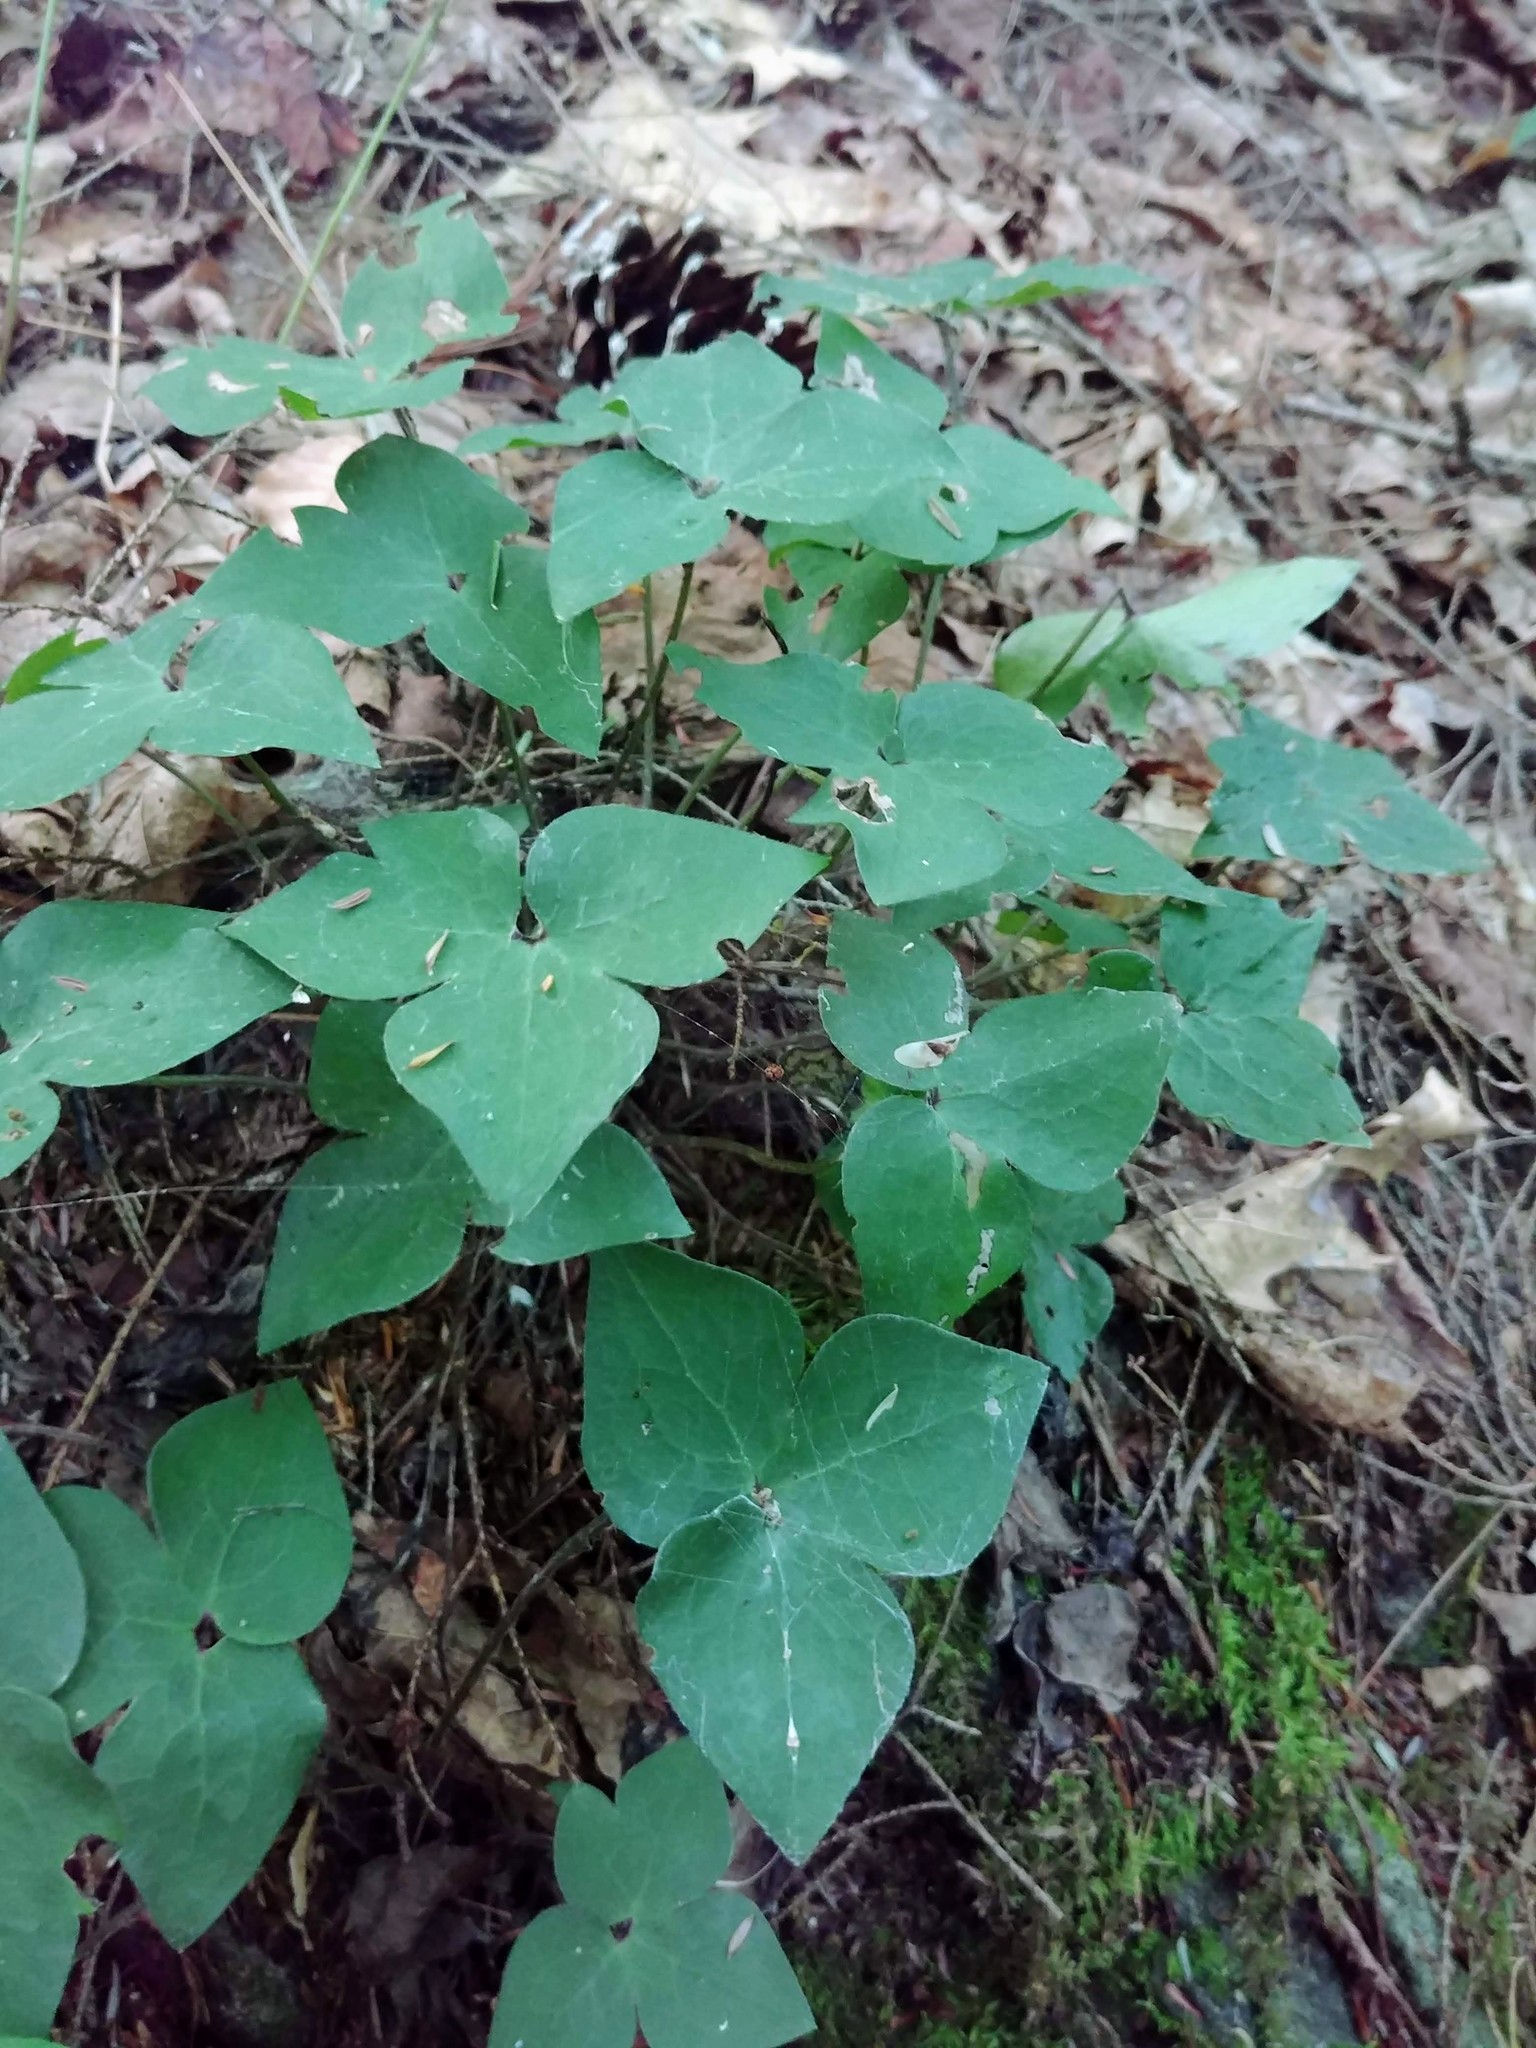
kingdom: Plantae
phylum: Tracheophyta
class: Magnoliopsida
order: Ranunculales
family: Ranunculaceae
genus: Hepatica
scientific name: Hepatica acutiloba
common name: Sharp-lobed hepatica
